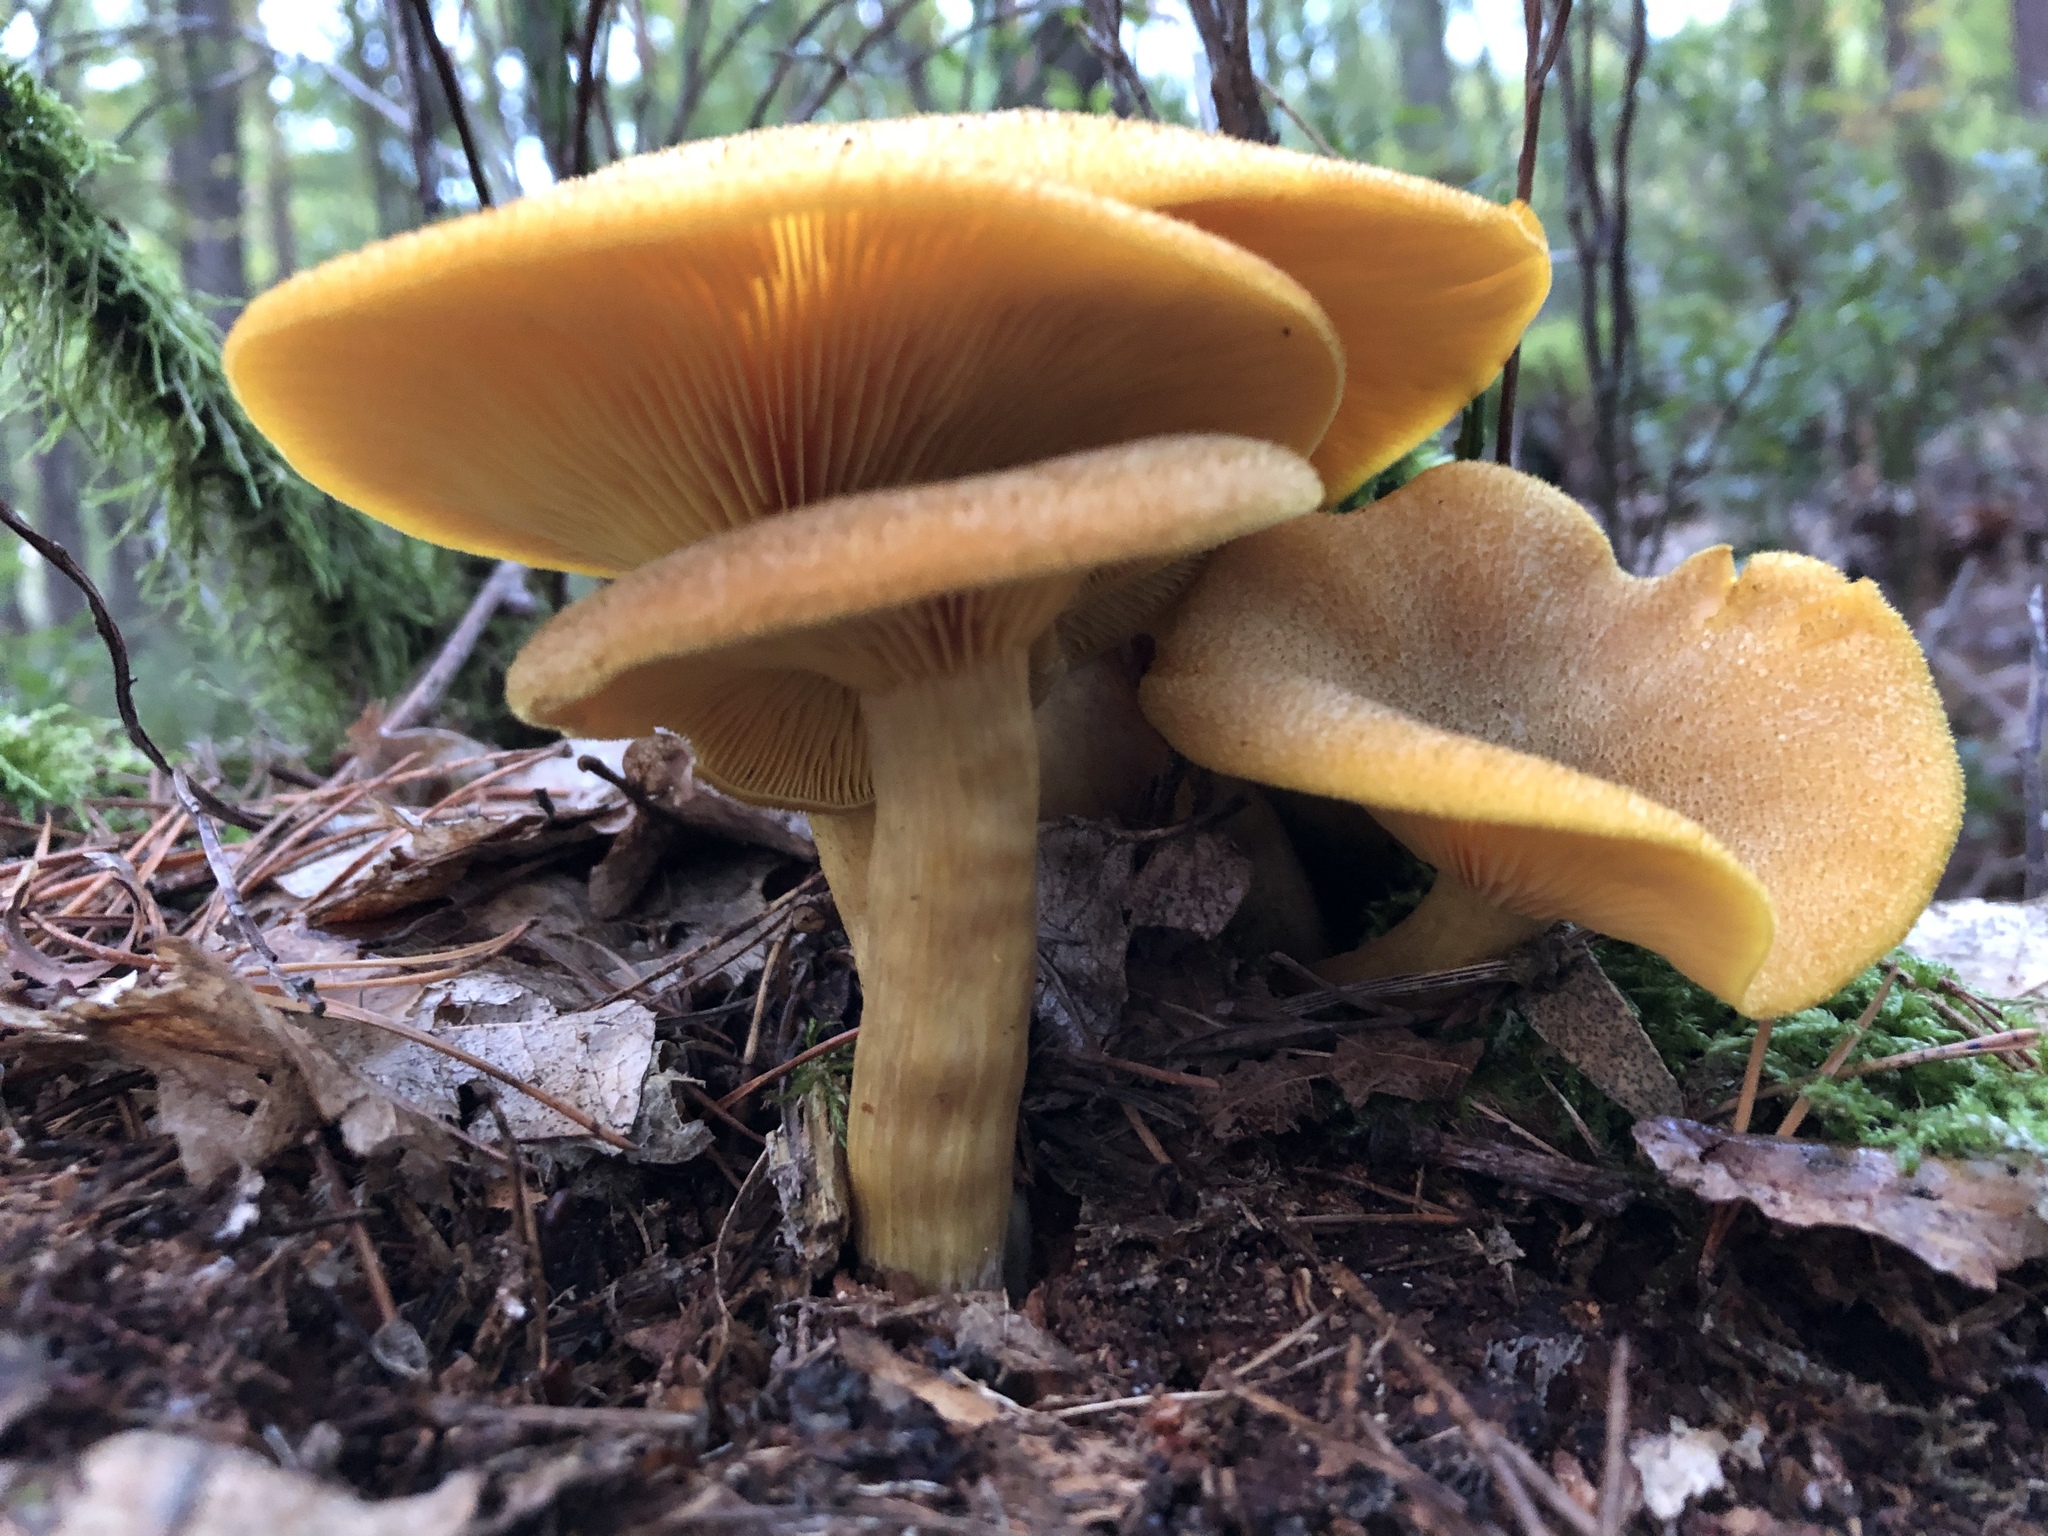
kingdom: Fungi
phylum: Basidiomycota
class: Agaricomycetes
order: Agaricales
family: Tricholomataceae
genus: Tricholomopsis
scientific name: Tricholomopsis decora
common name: Prunes and custard
